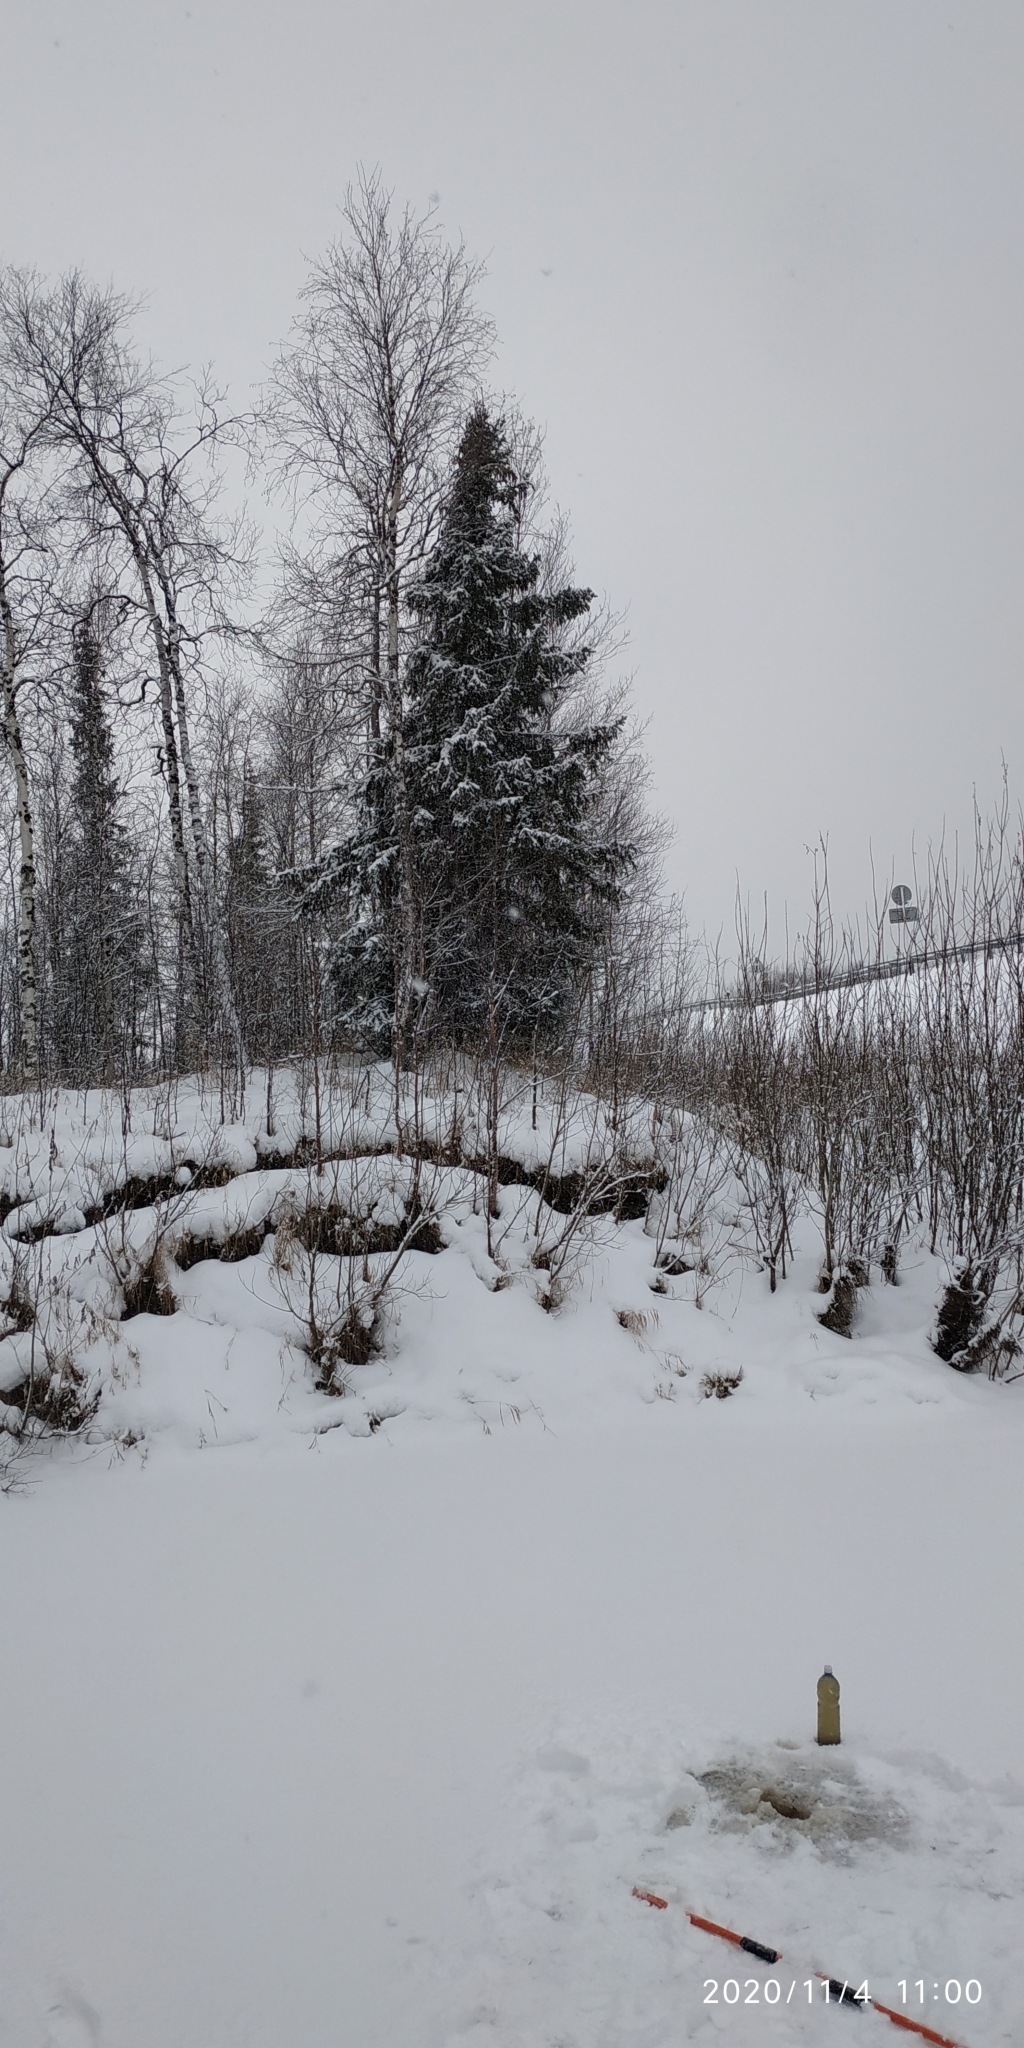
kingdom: Plantae
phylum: Tracheophyta
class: Pinopsida
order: Pinales
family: Pinaceae
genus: Picea
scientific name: Picea obovata
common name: Siberian spruce
